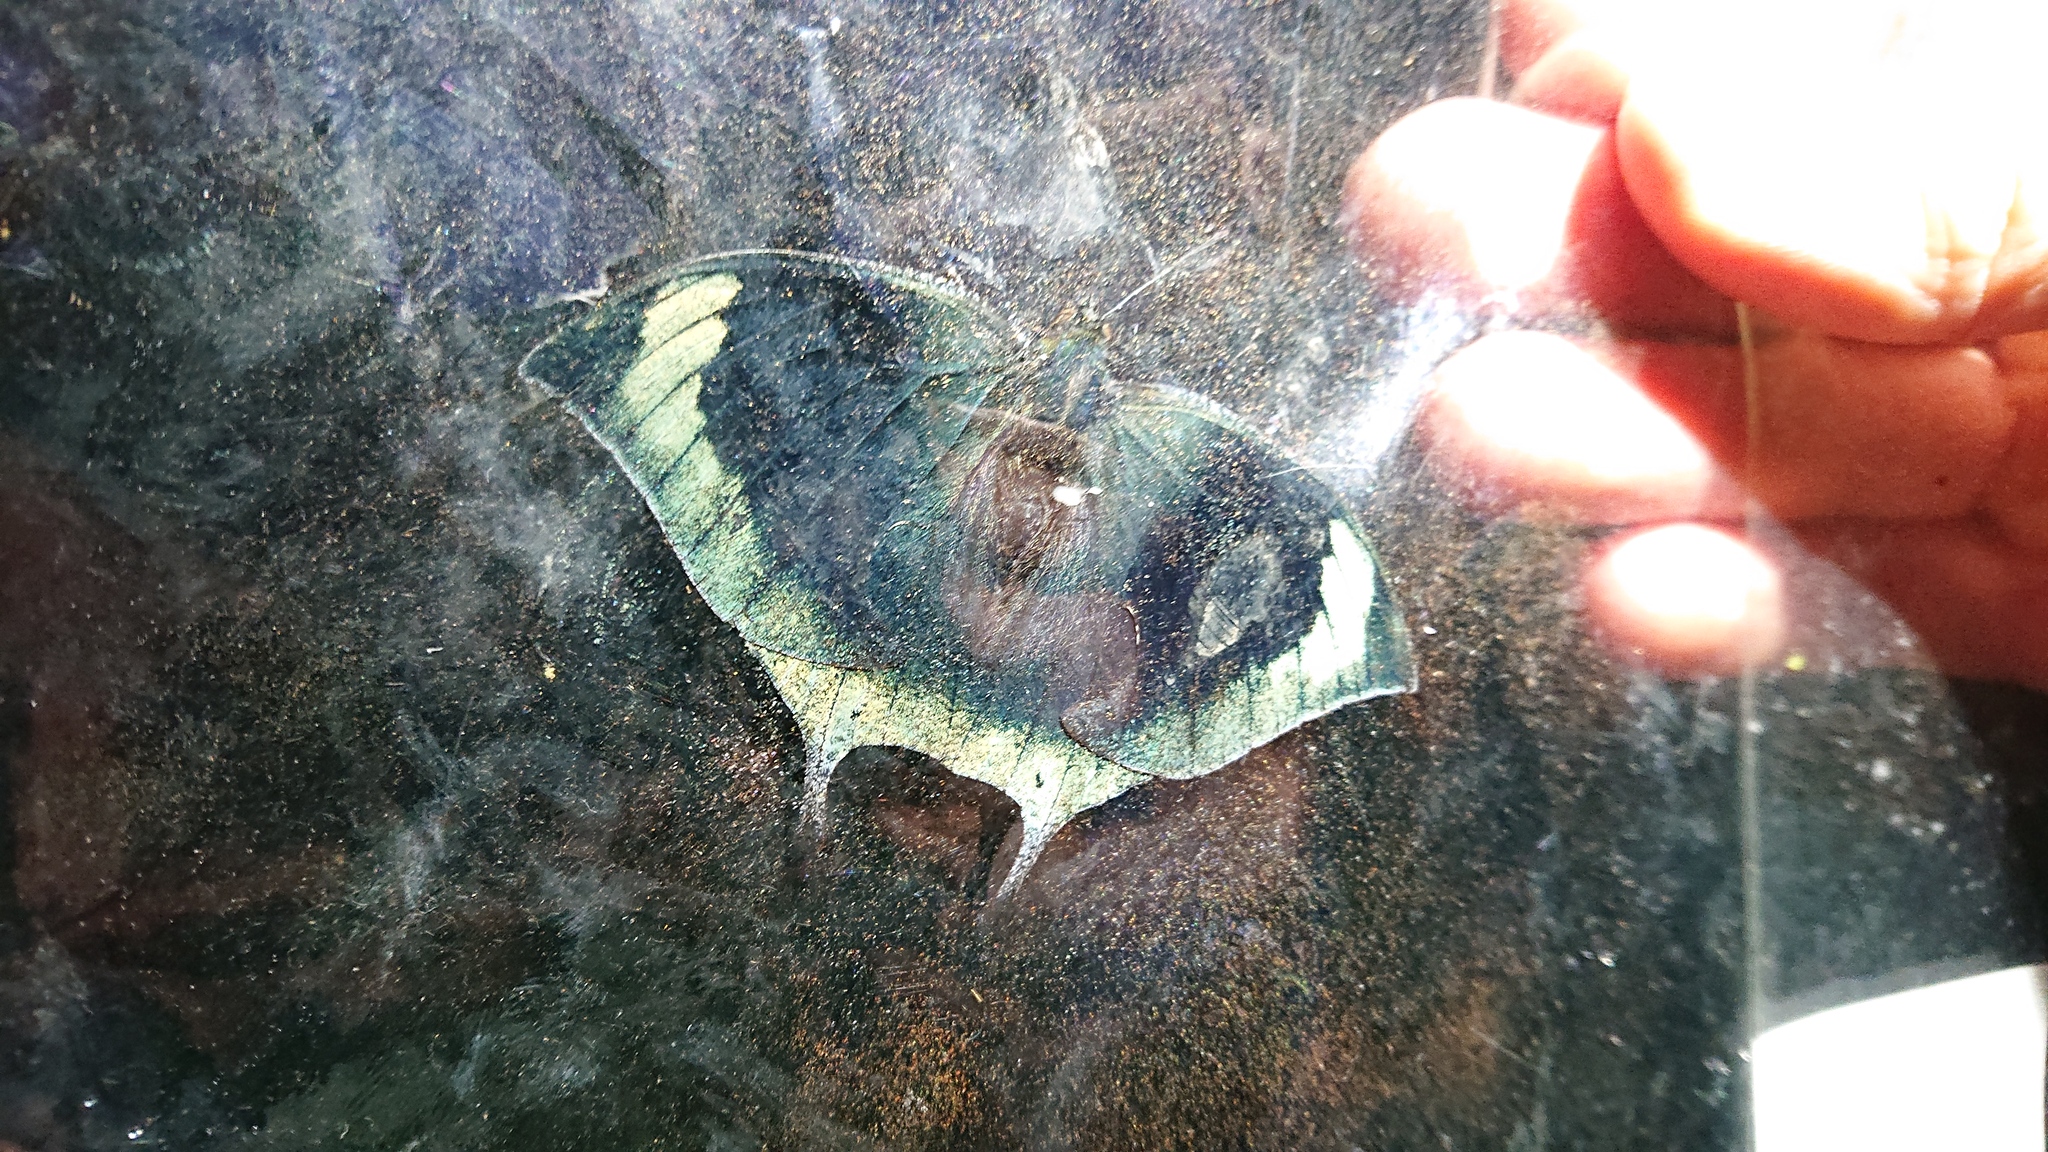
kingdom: Animalia
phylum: Arthropoda
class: Insecta
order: Lepidoptera
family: Nymphalidae
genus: Memphis
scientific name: Memphis
